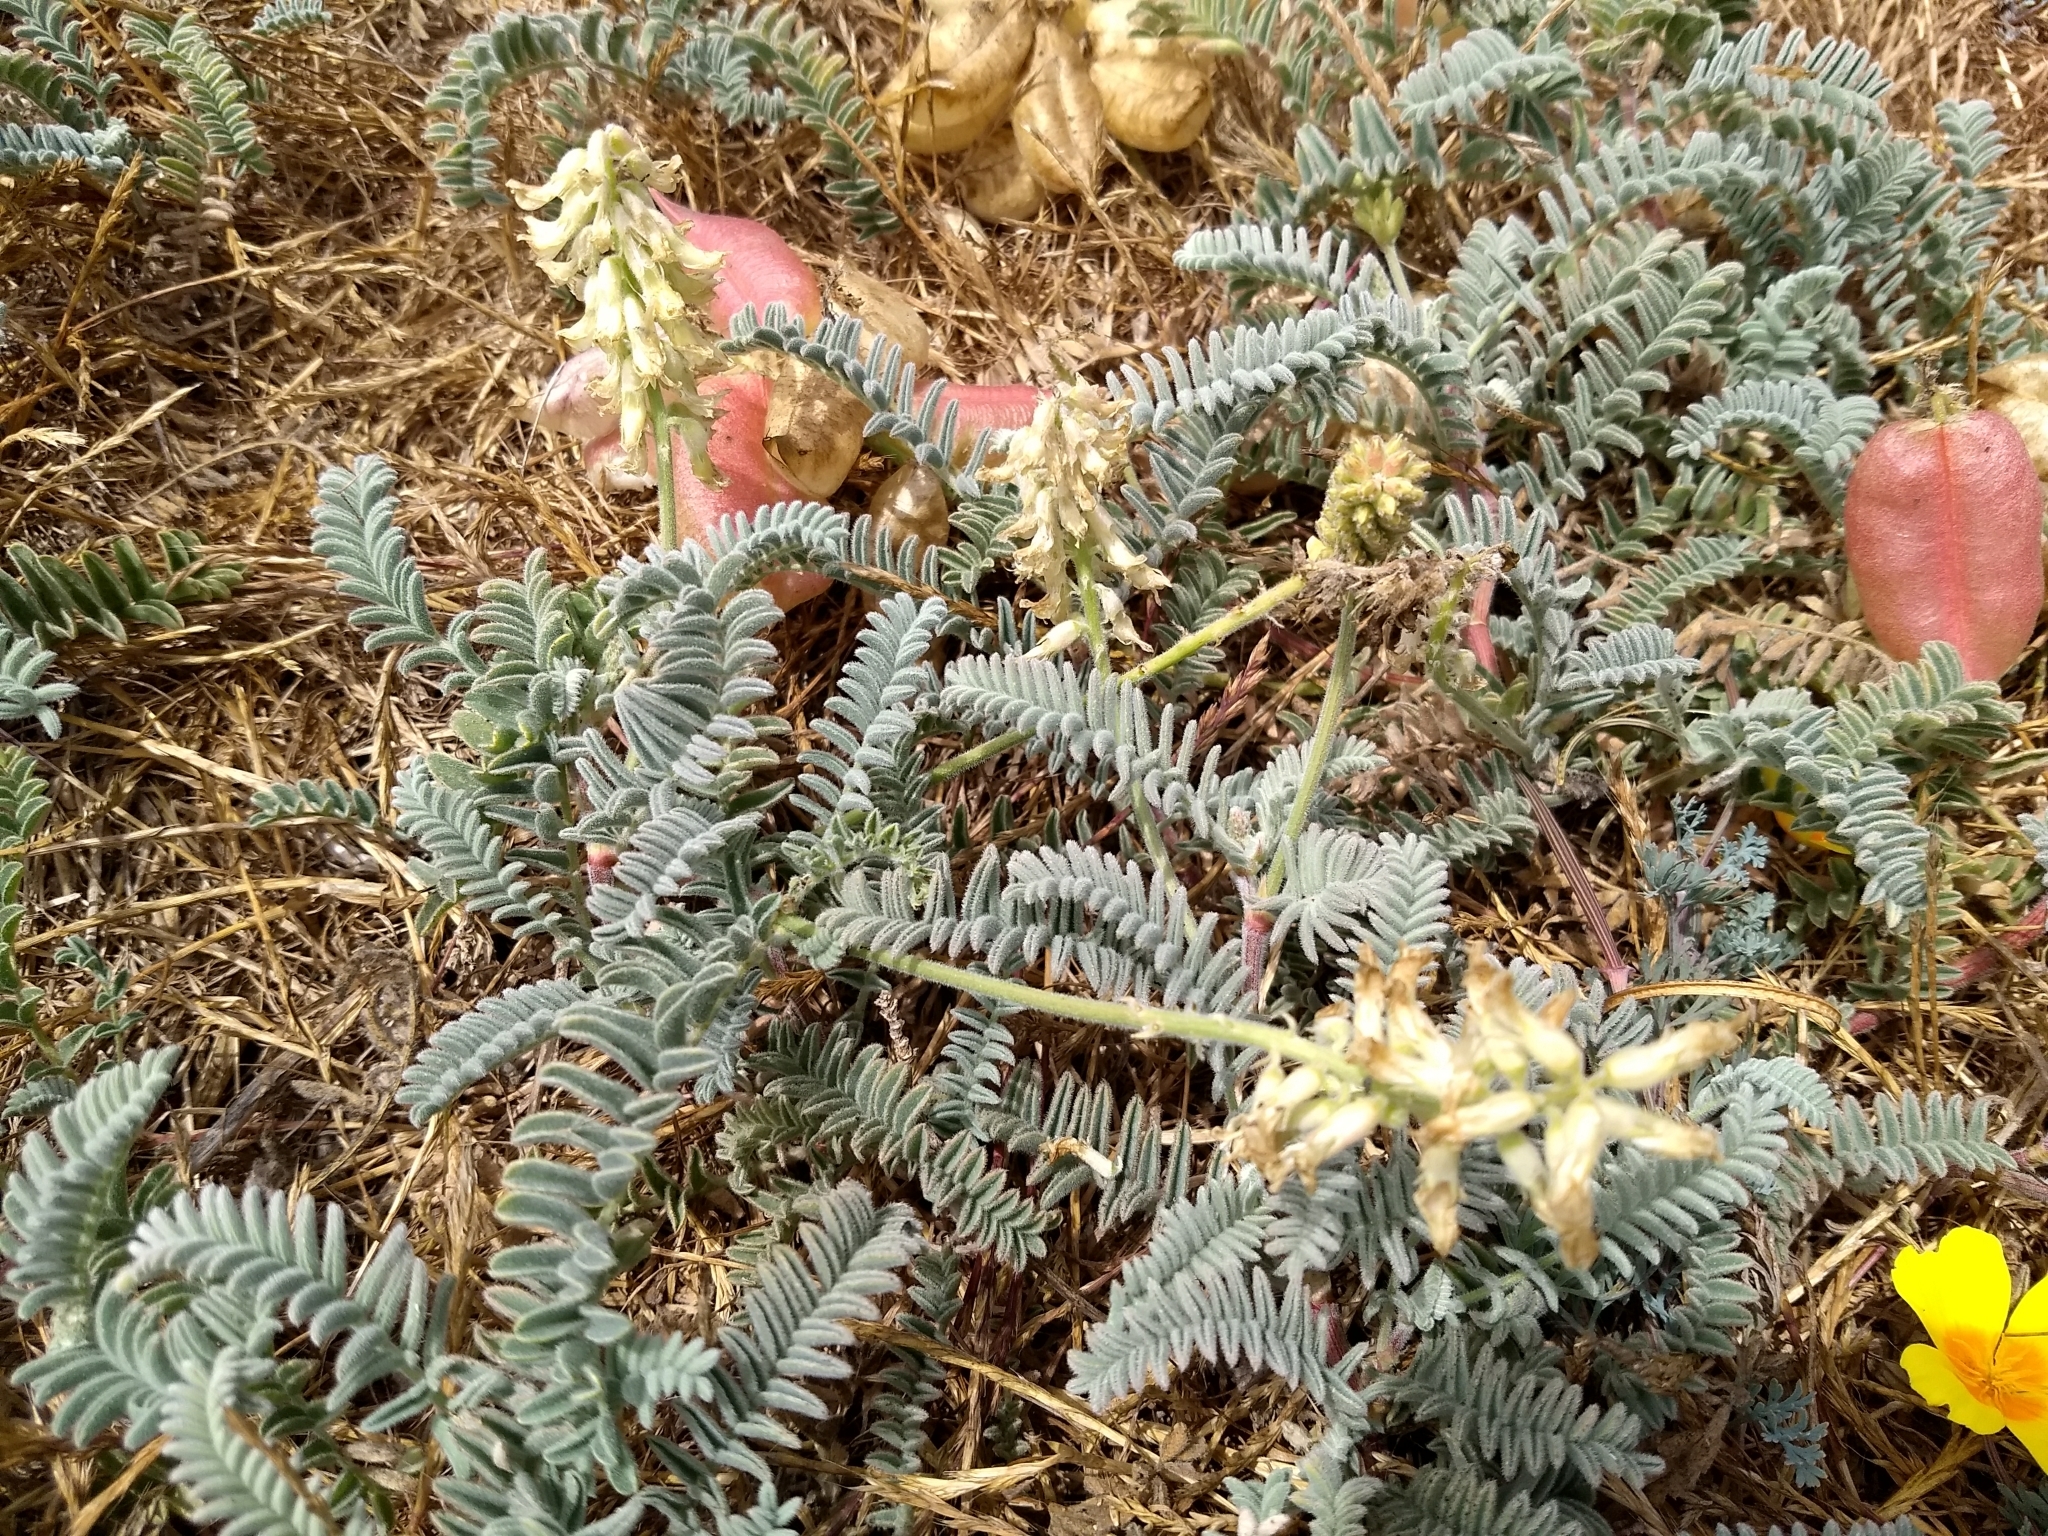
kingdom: Plantae
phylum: Tracheophyta
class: Magnoliopsida
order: Fabales
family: Fabaceae
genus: Astragalus
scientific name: Astragalus nuttallii
